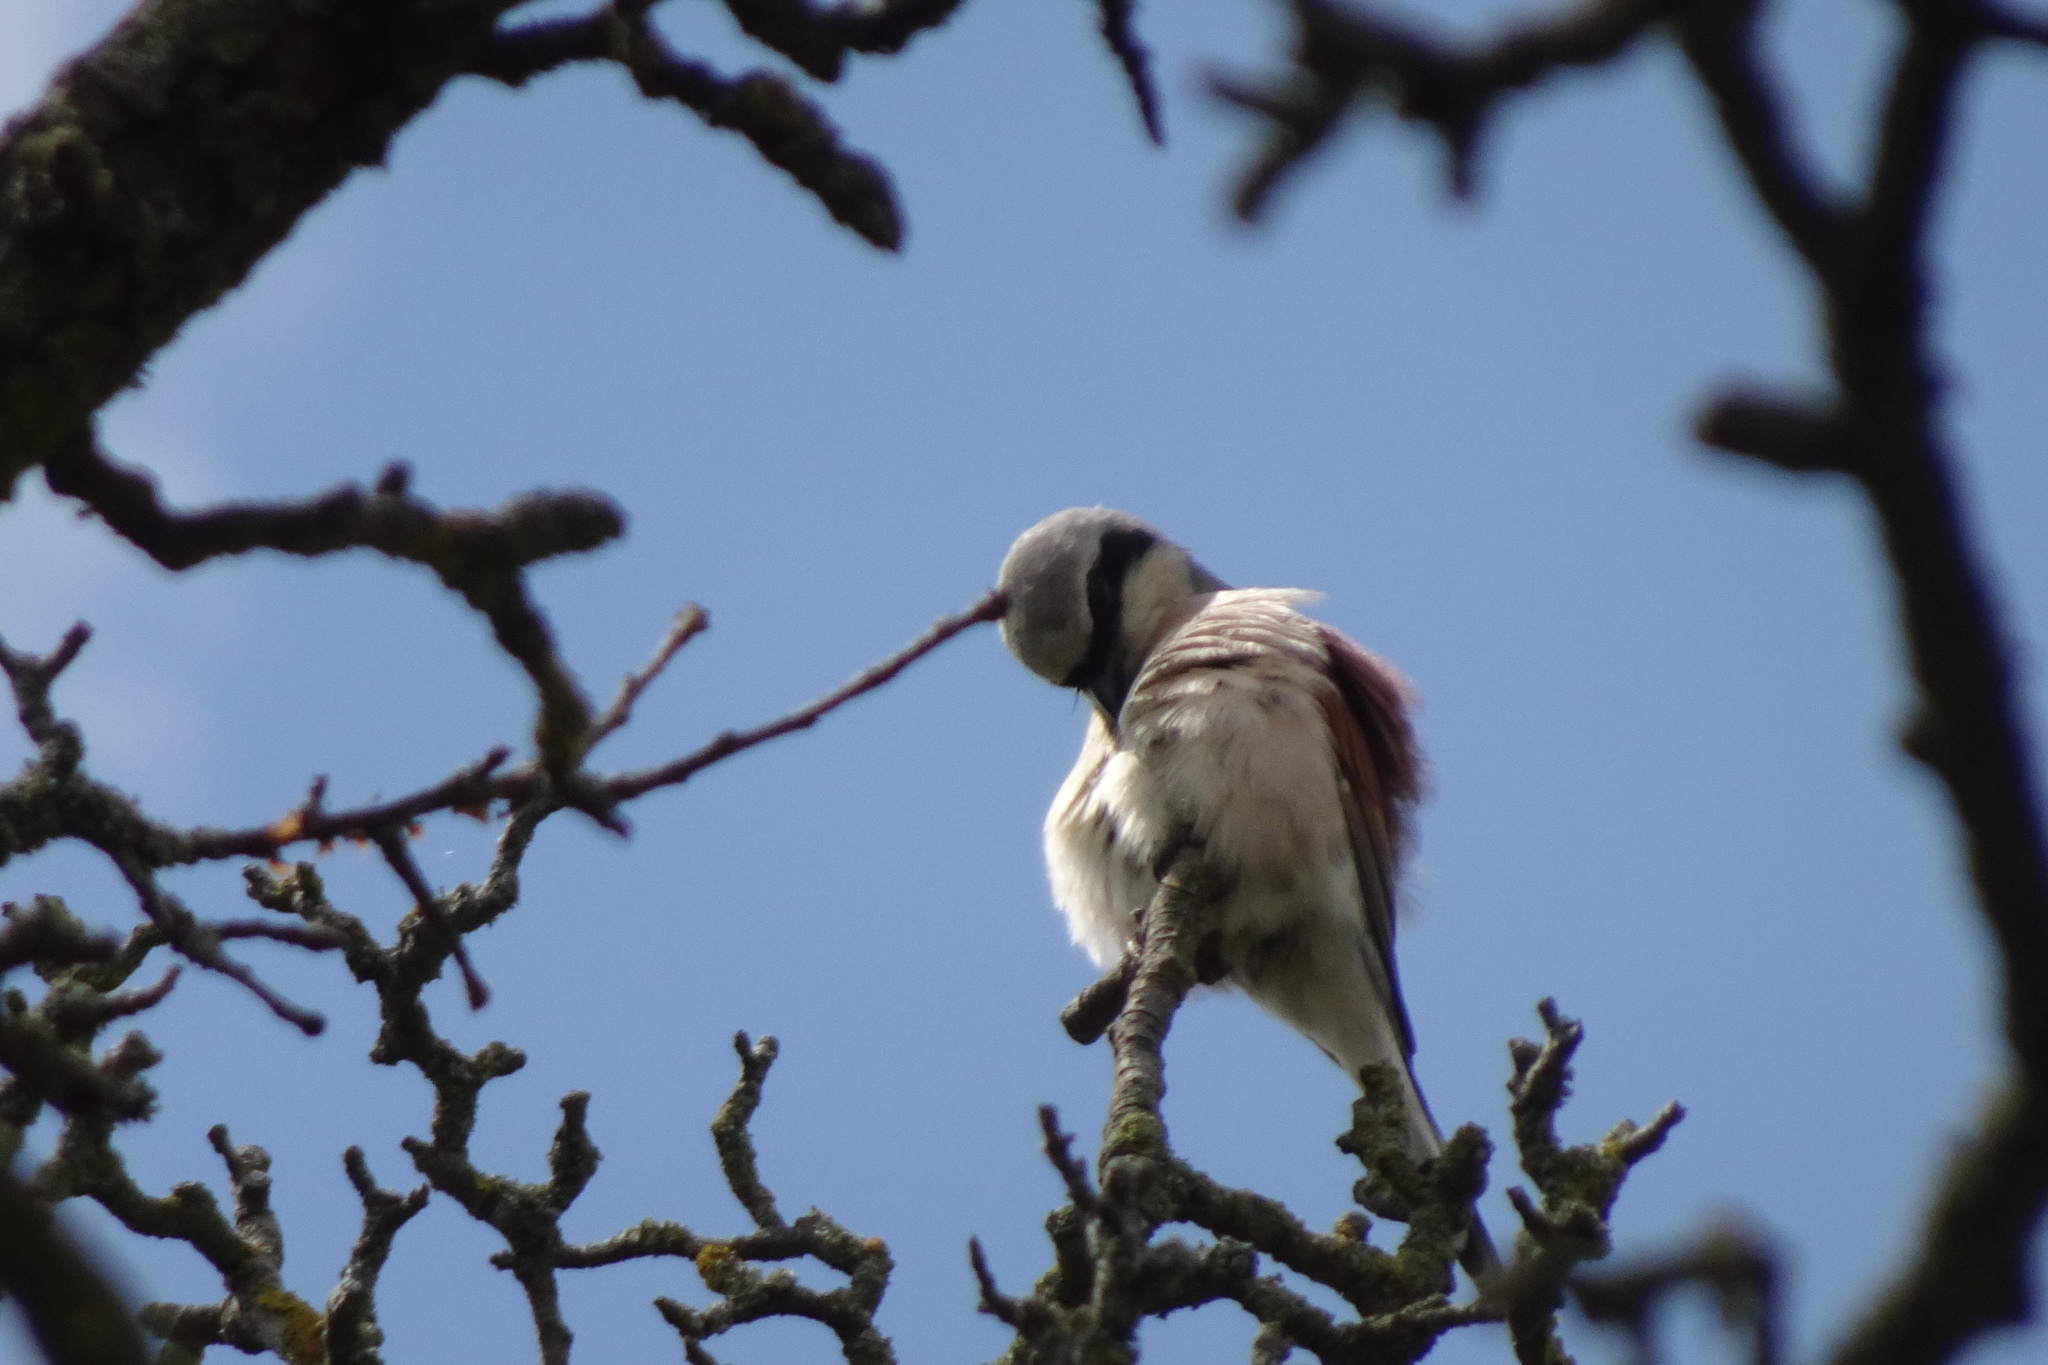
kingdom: Animalia
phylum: Chordata
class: Aves
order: Passeriformes
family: Laniidae
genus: Lanius
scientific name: Lanius collurio
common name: Red-backed shrike
